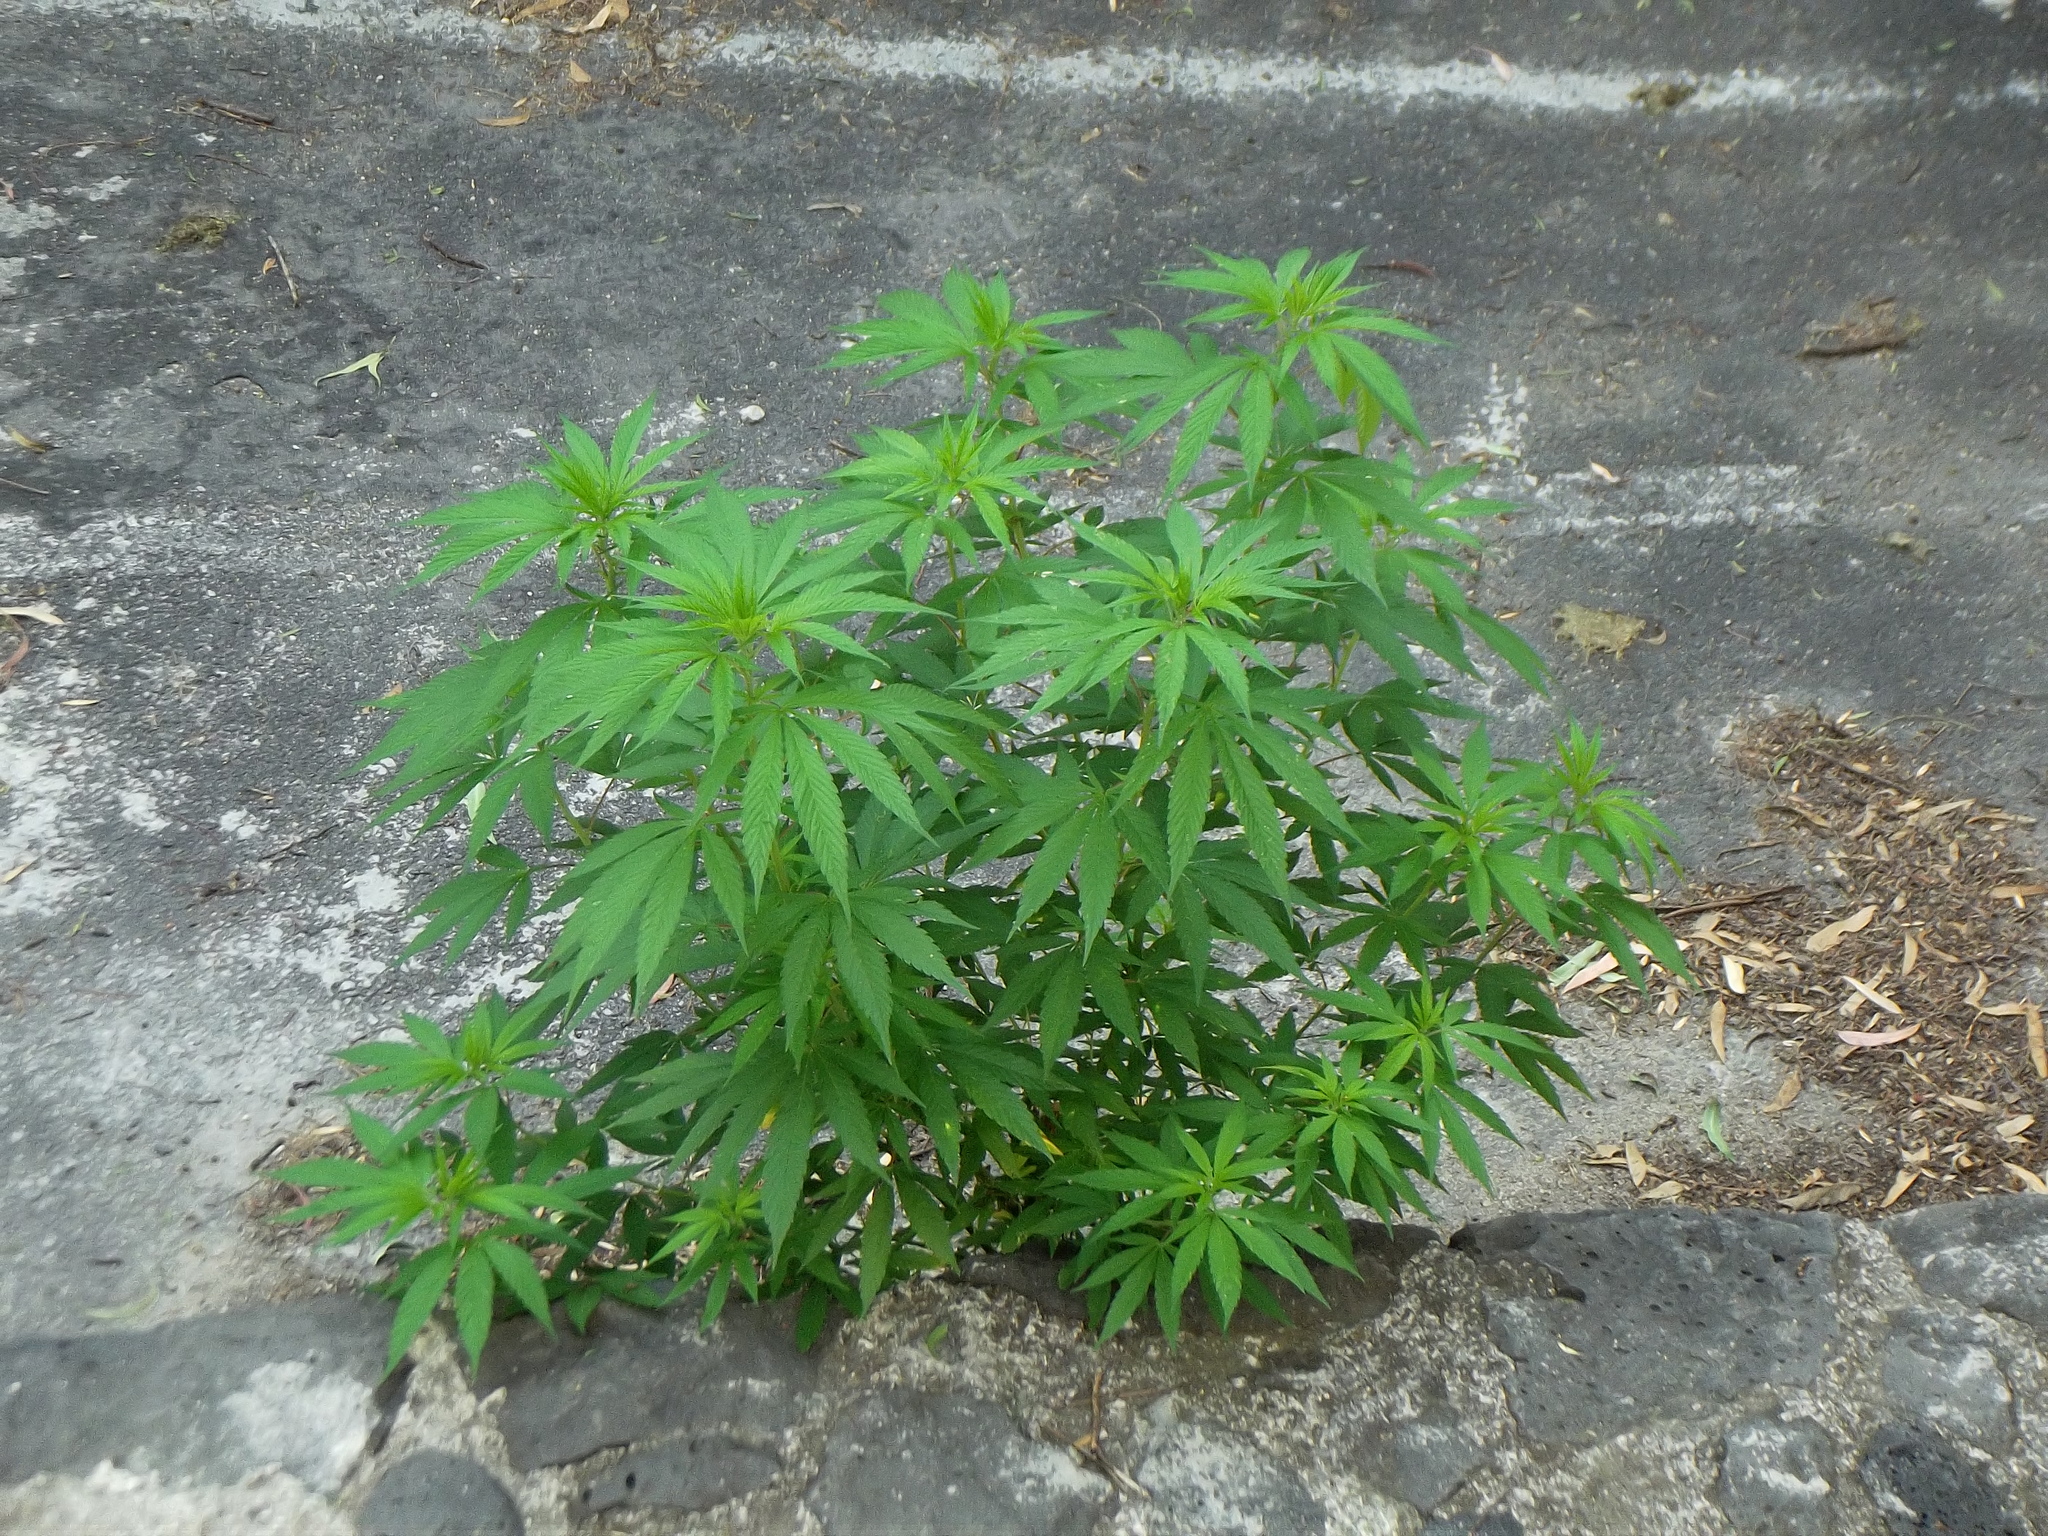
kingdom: Plantae
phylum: Tracheophyta
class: Magnoliopsida
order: Rosales
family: Cannabaceae
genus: Cannabis
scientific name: Cannabis sativa
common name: Hemp
